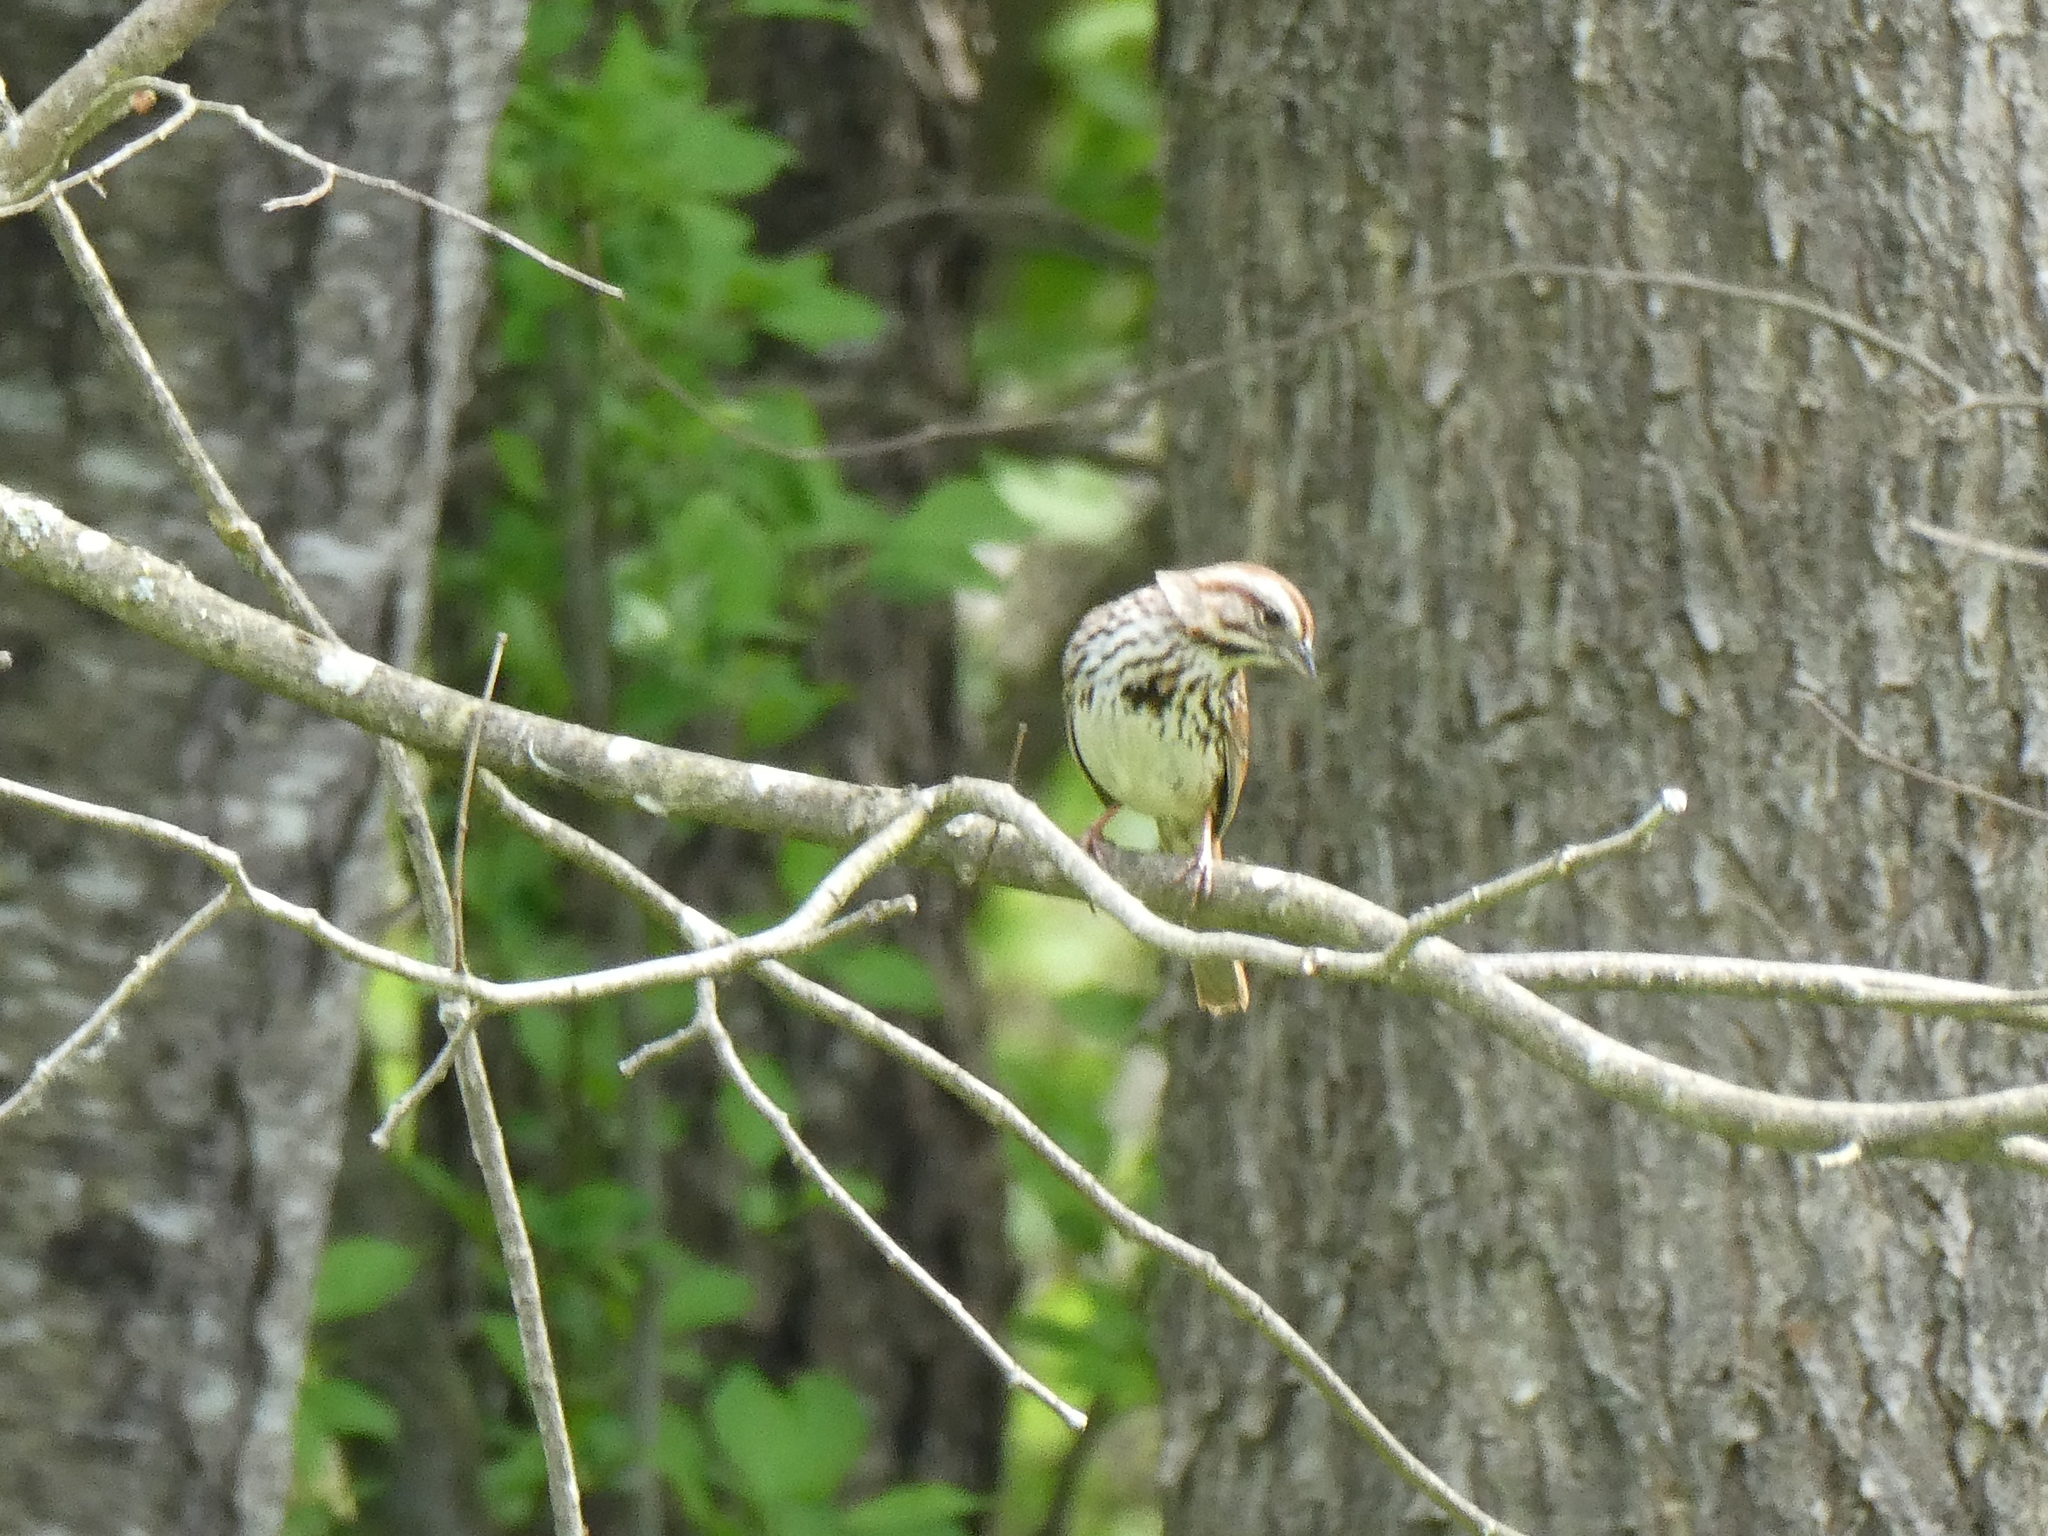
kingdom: Animalia
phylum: Chordata
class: Aves
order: Passeriformes
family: Passerellidae
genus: Melospiza
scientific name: Melospiza melodia
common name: Song sparrow
